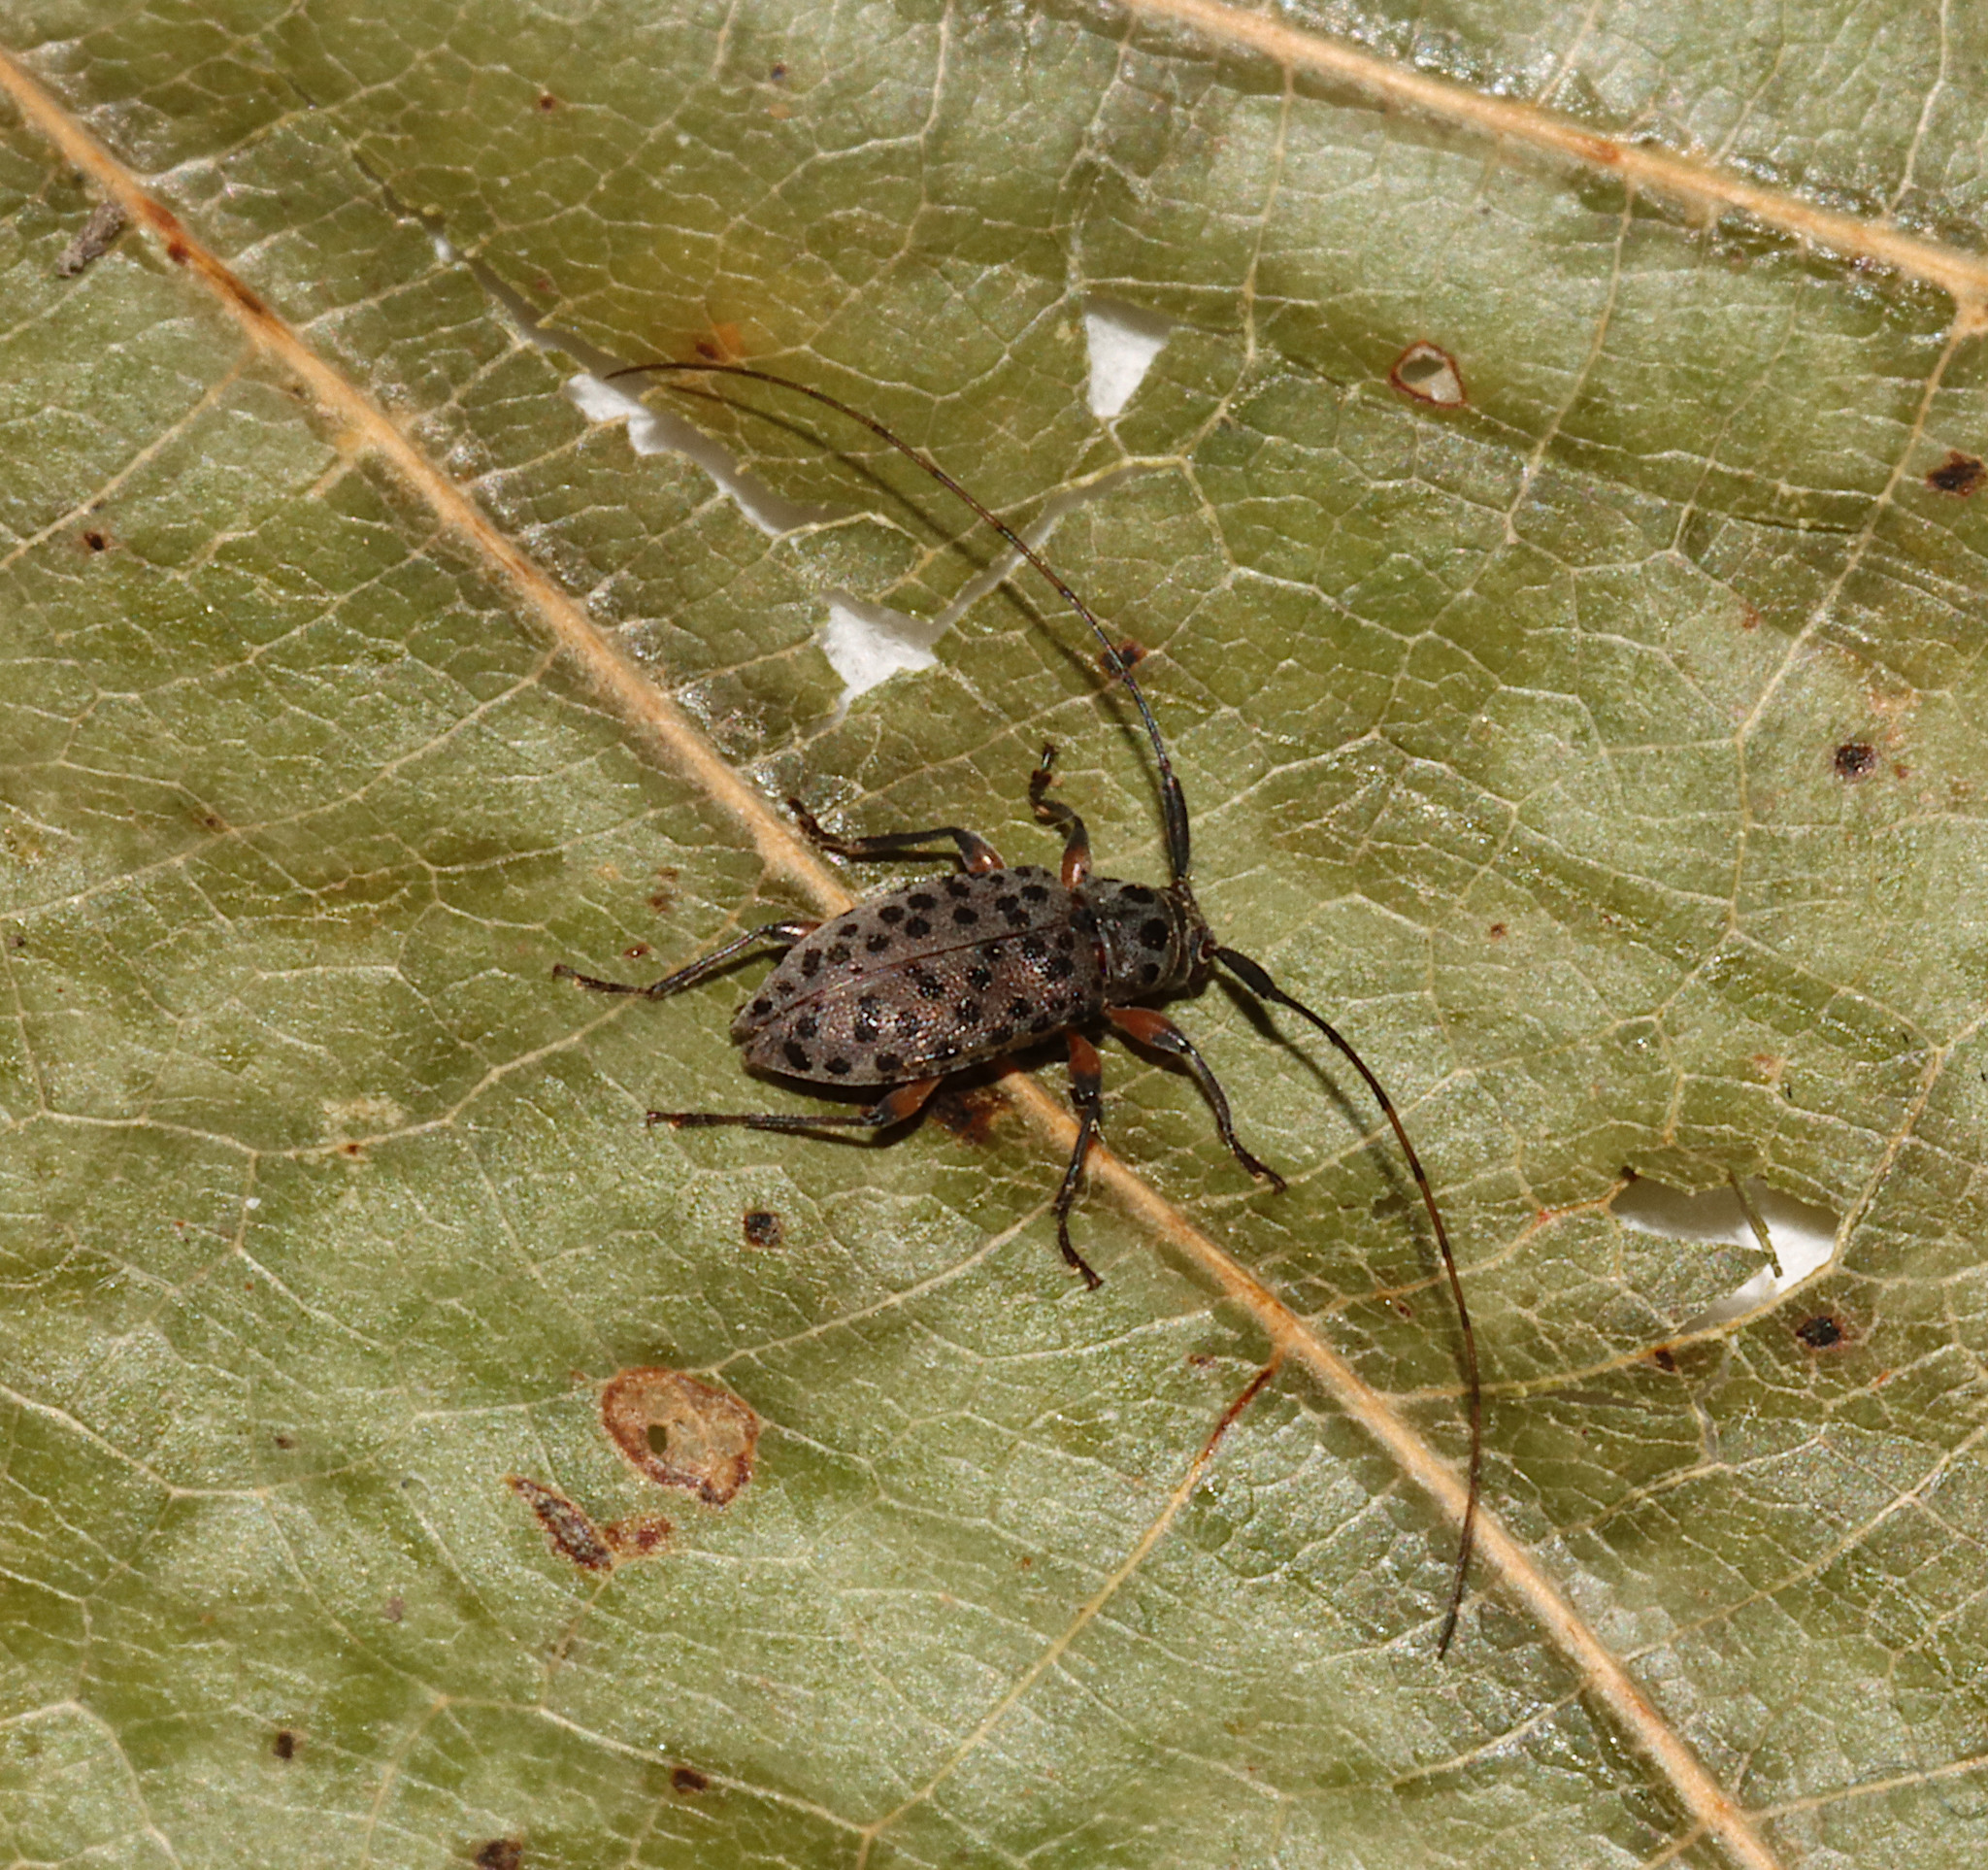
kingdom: Animalia
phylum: Arthropoda
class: Insecta
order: Coleoptera
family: Cerambycidae
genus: Hyperplatys
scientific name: Hyperplatys aspersa
